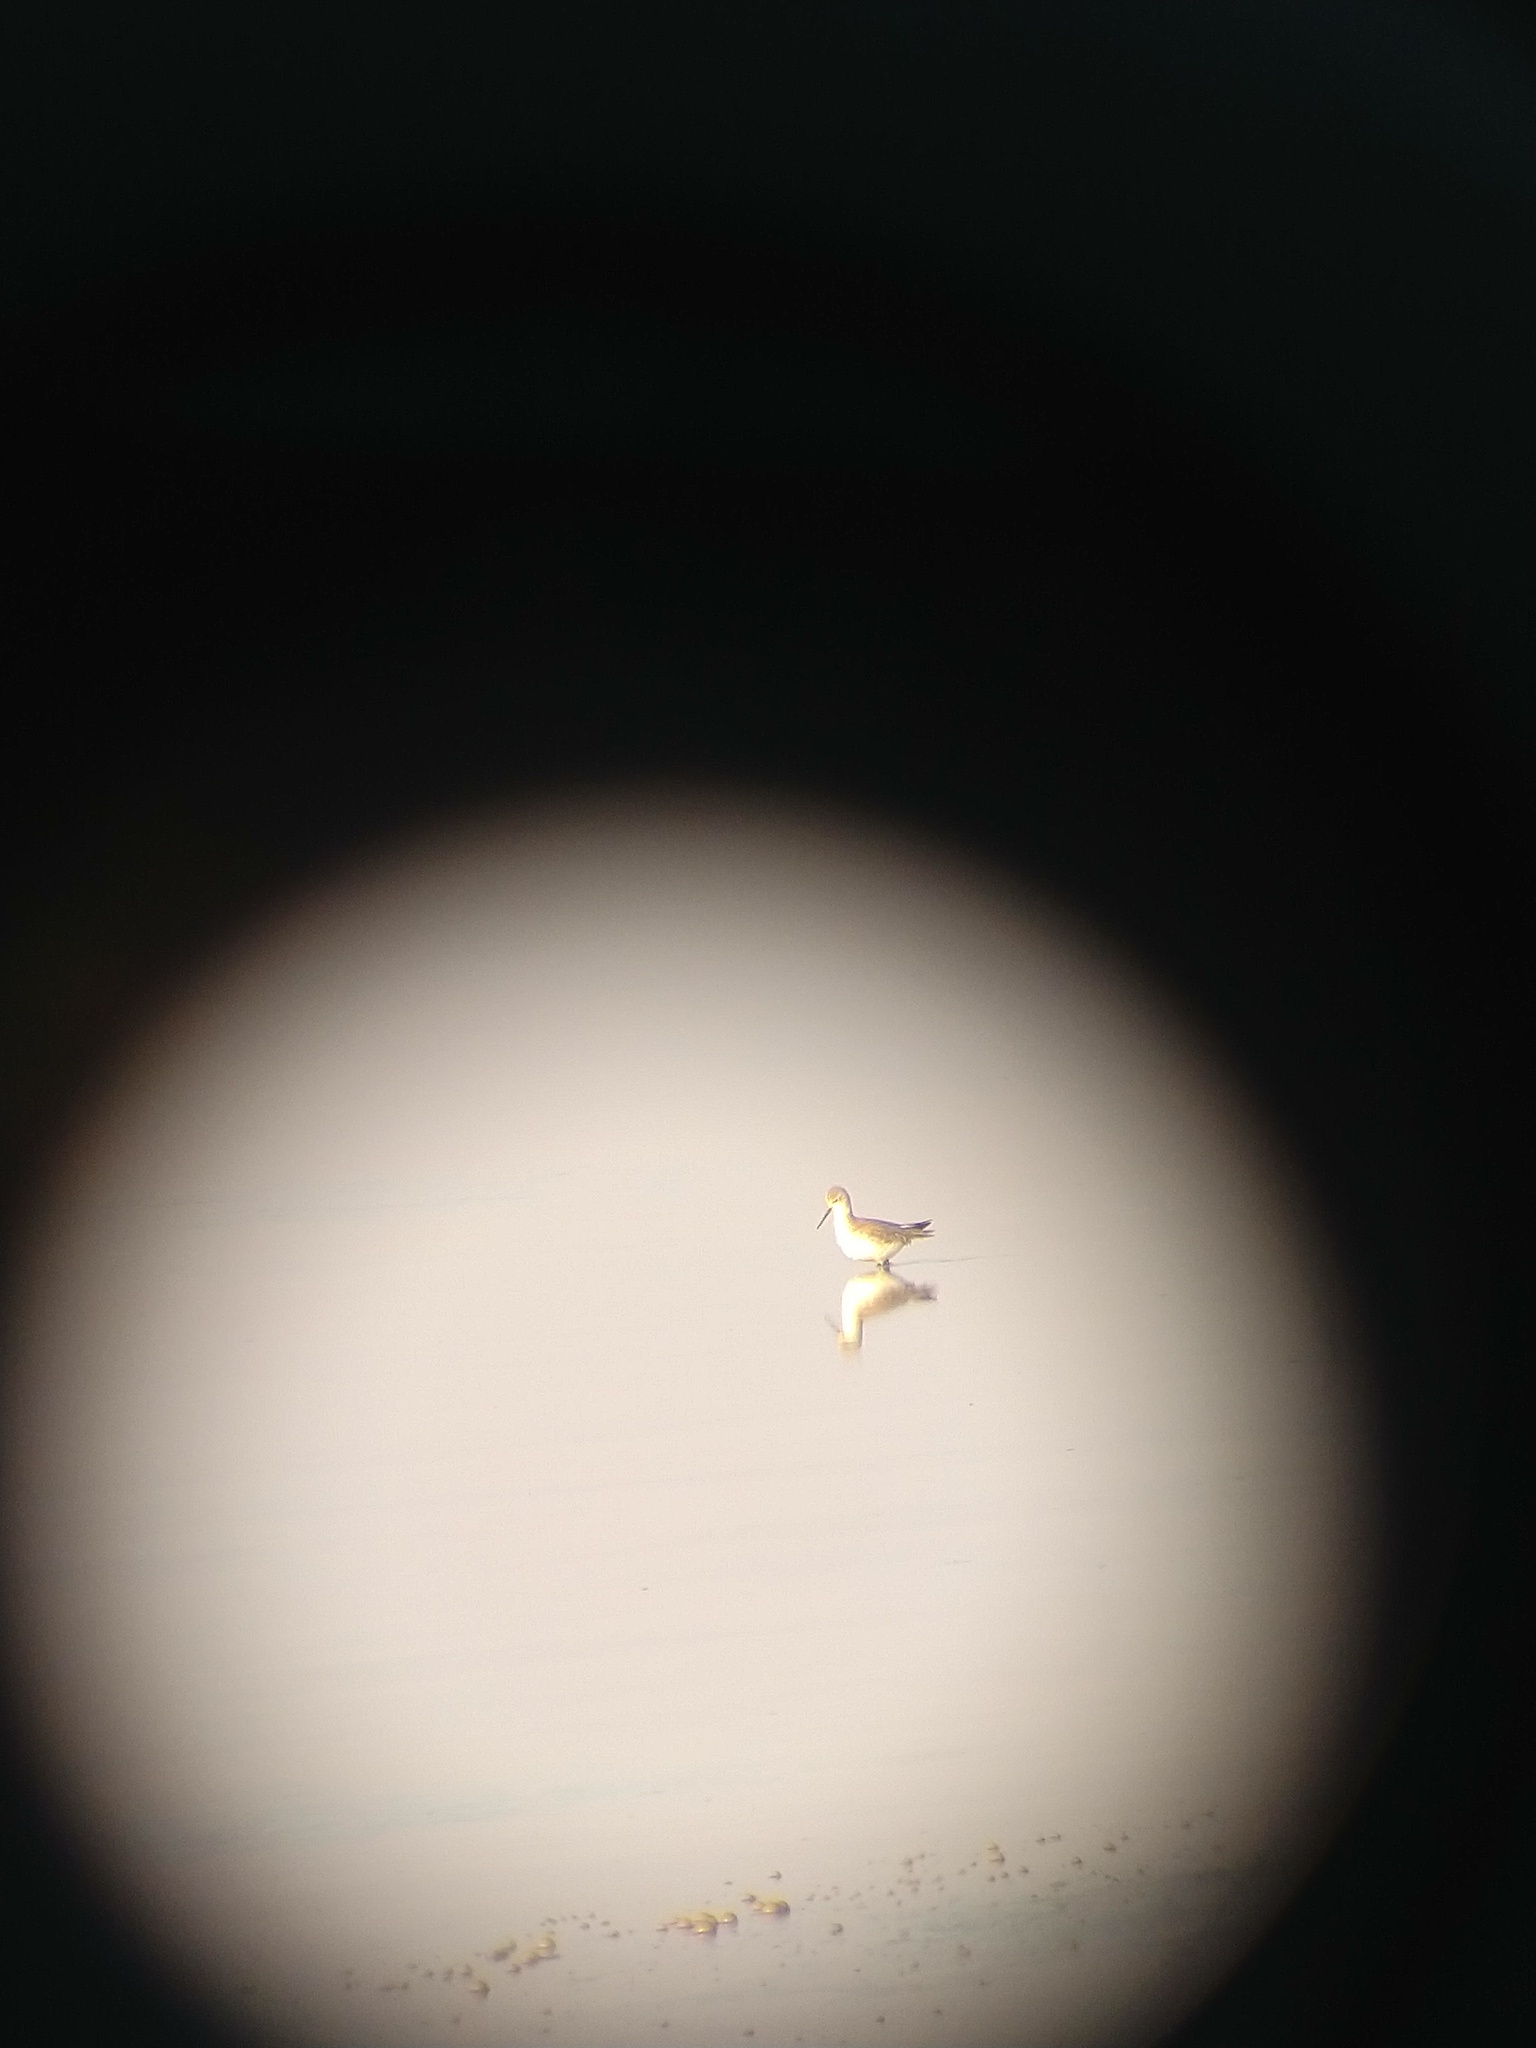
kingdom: Animalia
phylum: Chordata
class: Aves
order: Charadriiformes
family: Scolopacidae
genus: Tringa
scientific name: Tringa stagnatilis
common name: Marsh sandpiper
